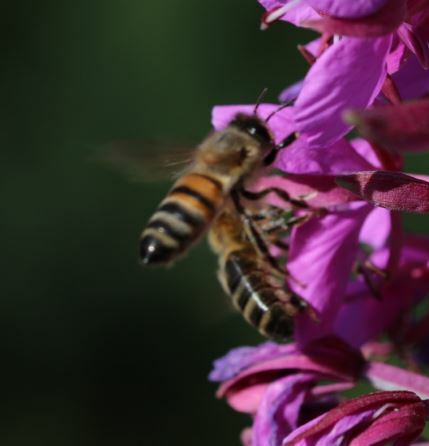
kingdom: Animalia
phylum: Arthropoda
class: Insecta
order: Hymenoptera
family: Apidae
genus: Apis
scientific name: Apis mellifera
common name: Honey bee
